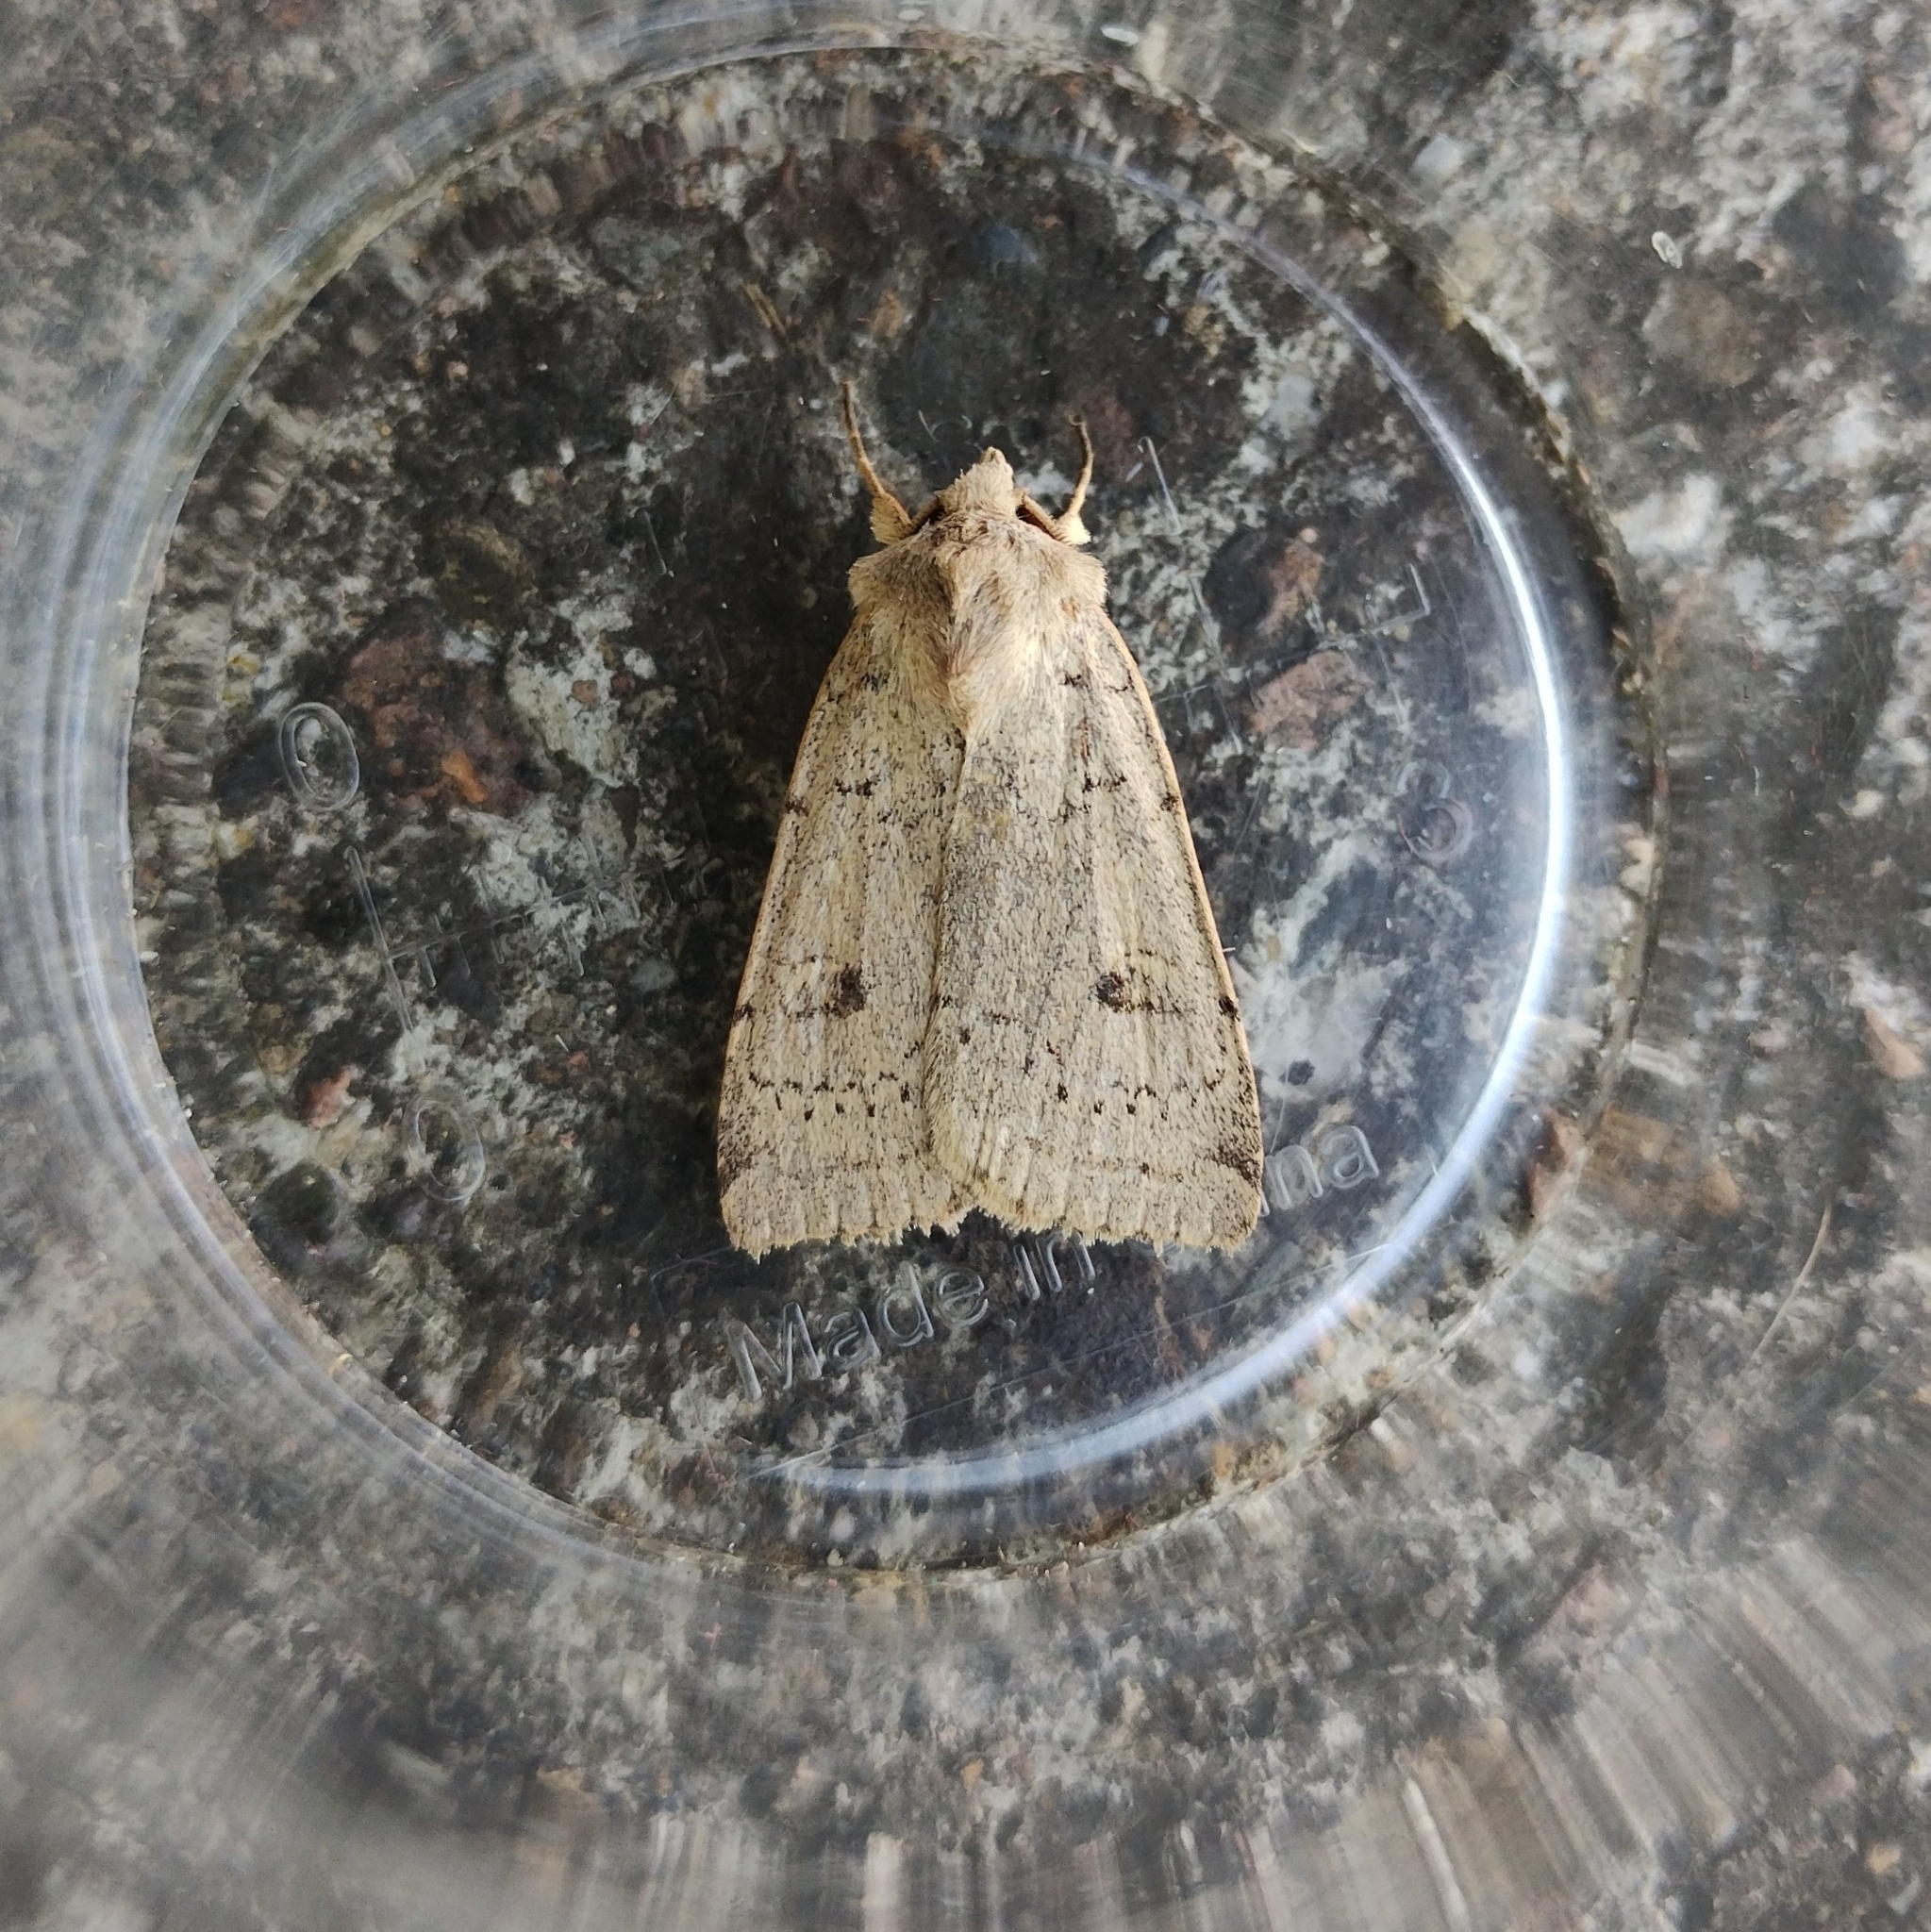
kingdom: Animalia
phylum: Arthropoda
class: Insecta
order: Lepidoptera
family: Noctuidae
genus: Xestia
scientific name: Xestia castanea
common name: Neglected rustic
